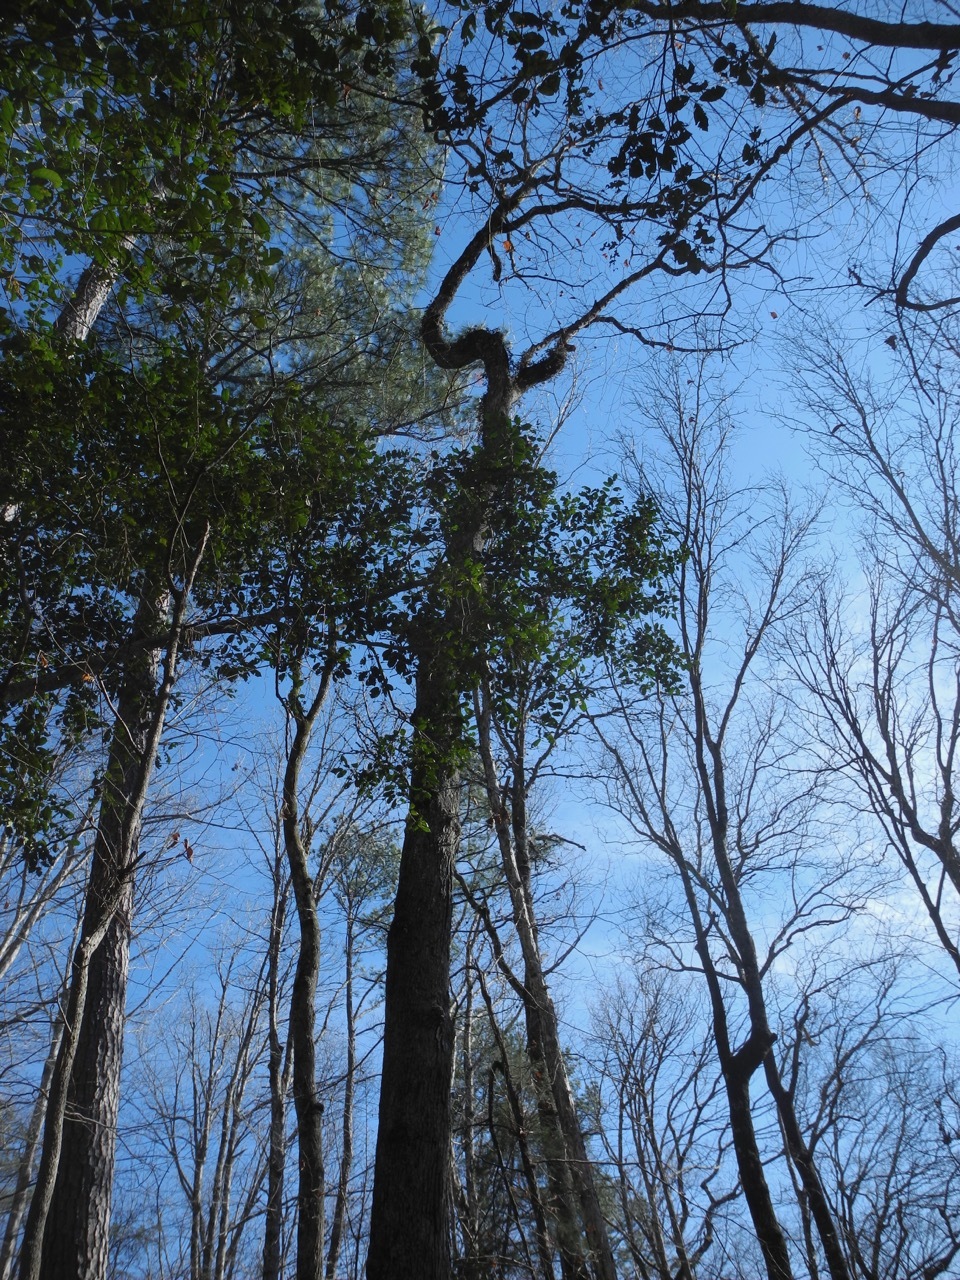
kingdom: Plantae
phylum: Tracheophyta
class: Polypodiopsida
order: Polypodiales
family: Polypodiaceae
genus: Pleopeltis
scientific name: Pleopeltis michauxiana
